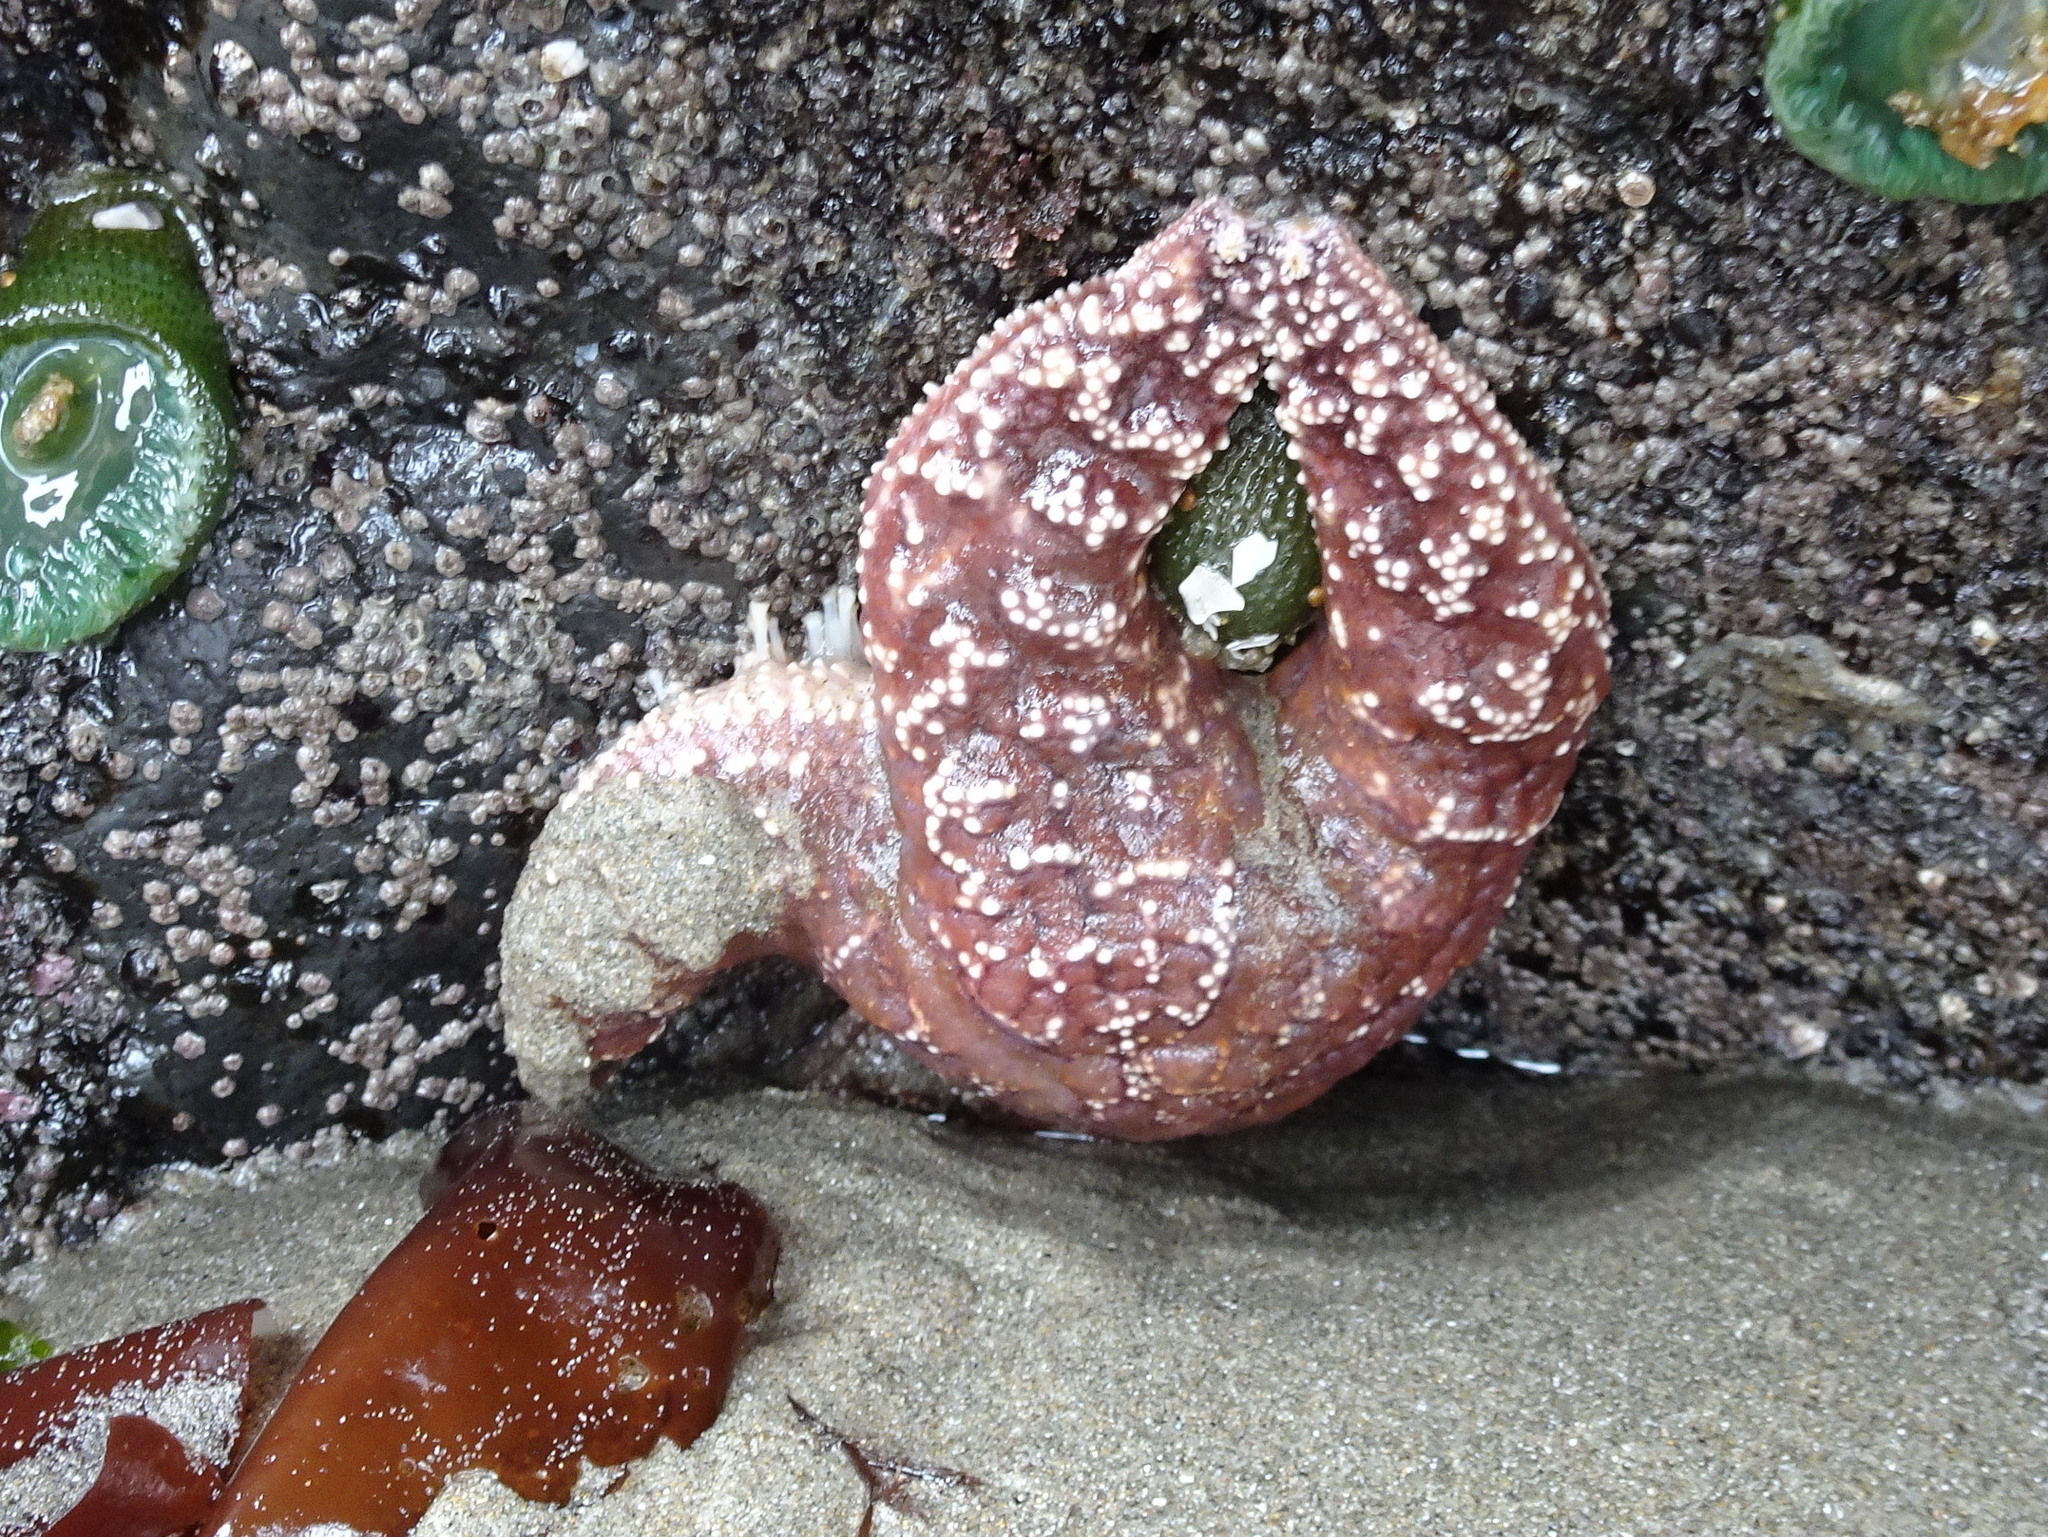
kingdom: Animalia
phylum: Echinodermata
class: Asteroidea
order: Forcipulatida
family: Asteriidae
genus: Pisaster
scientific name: Pisaster ochraceus
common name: Ochre stars
